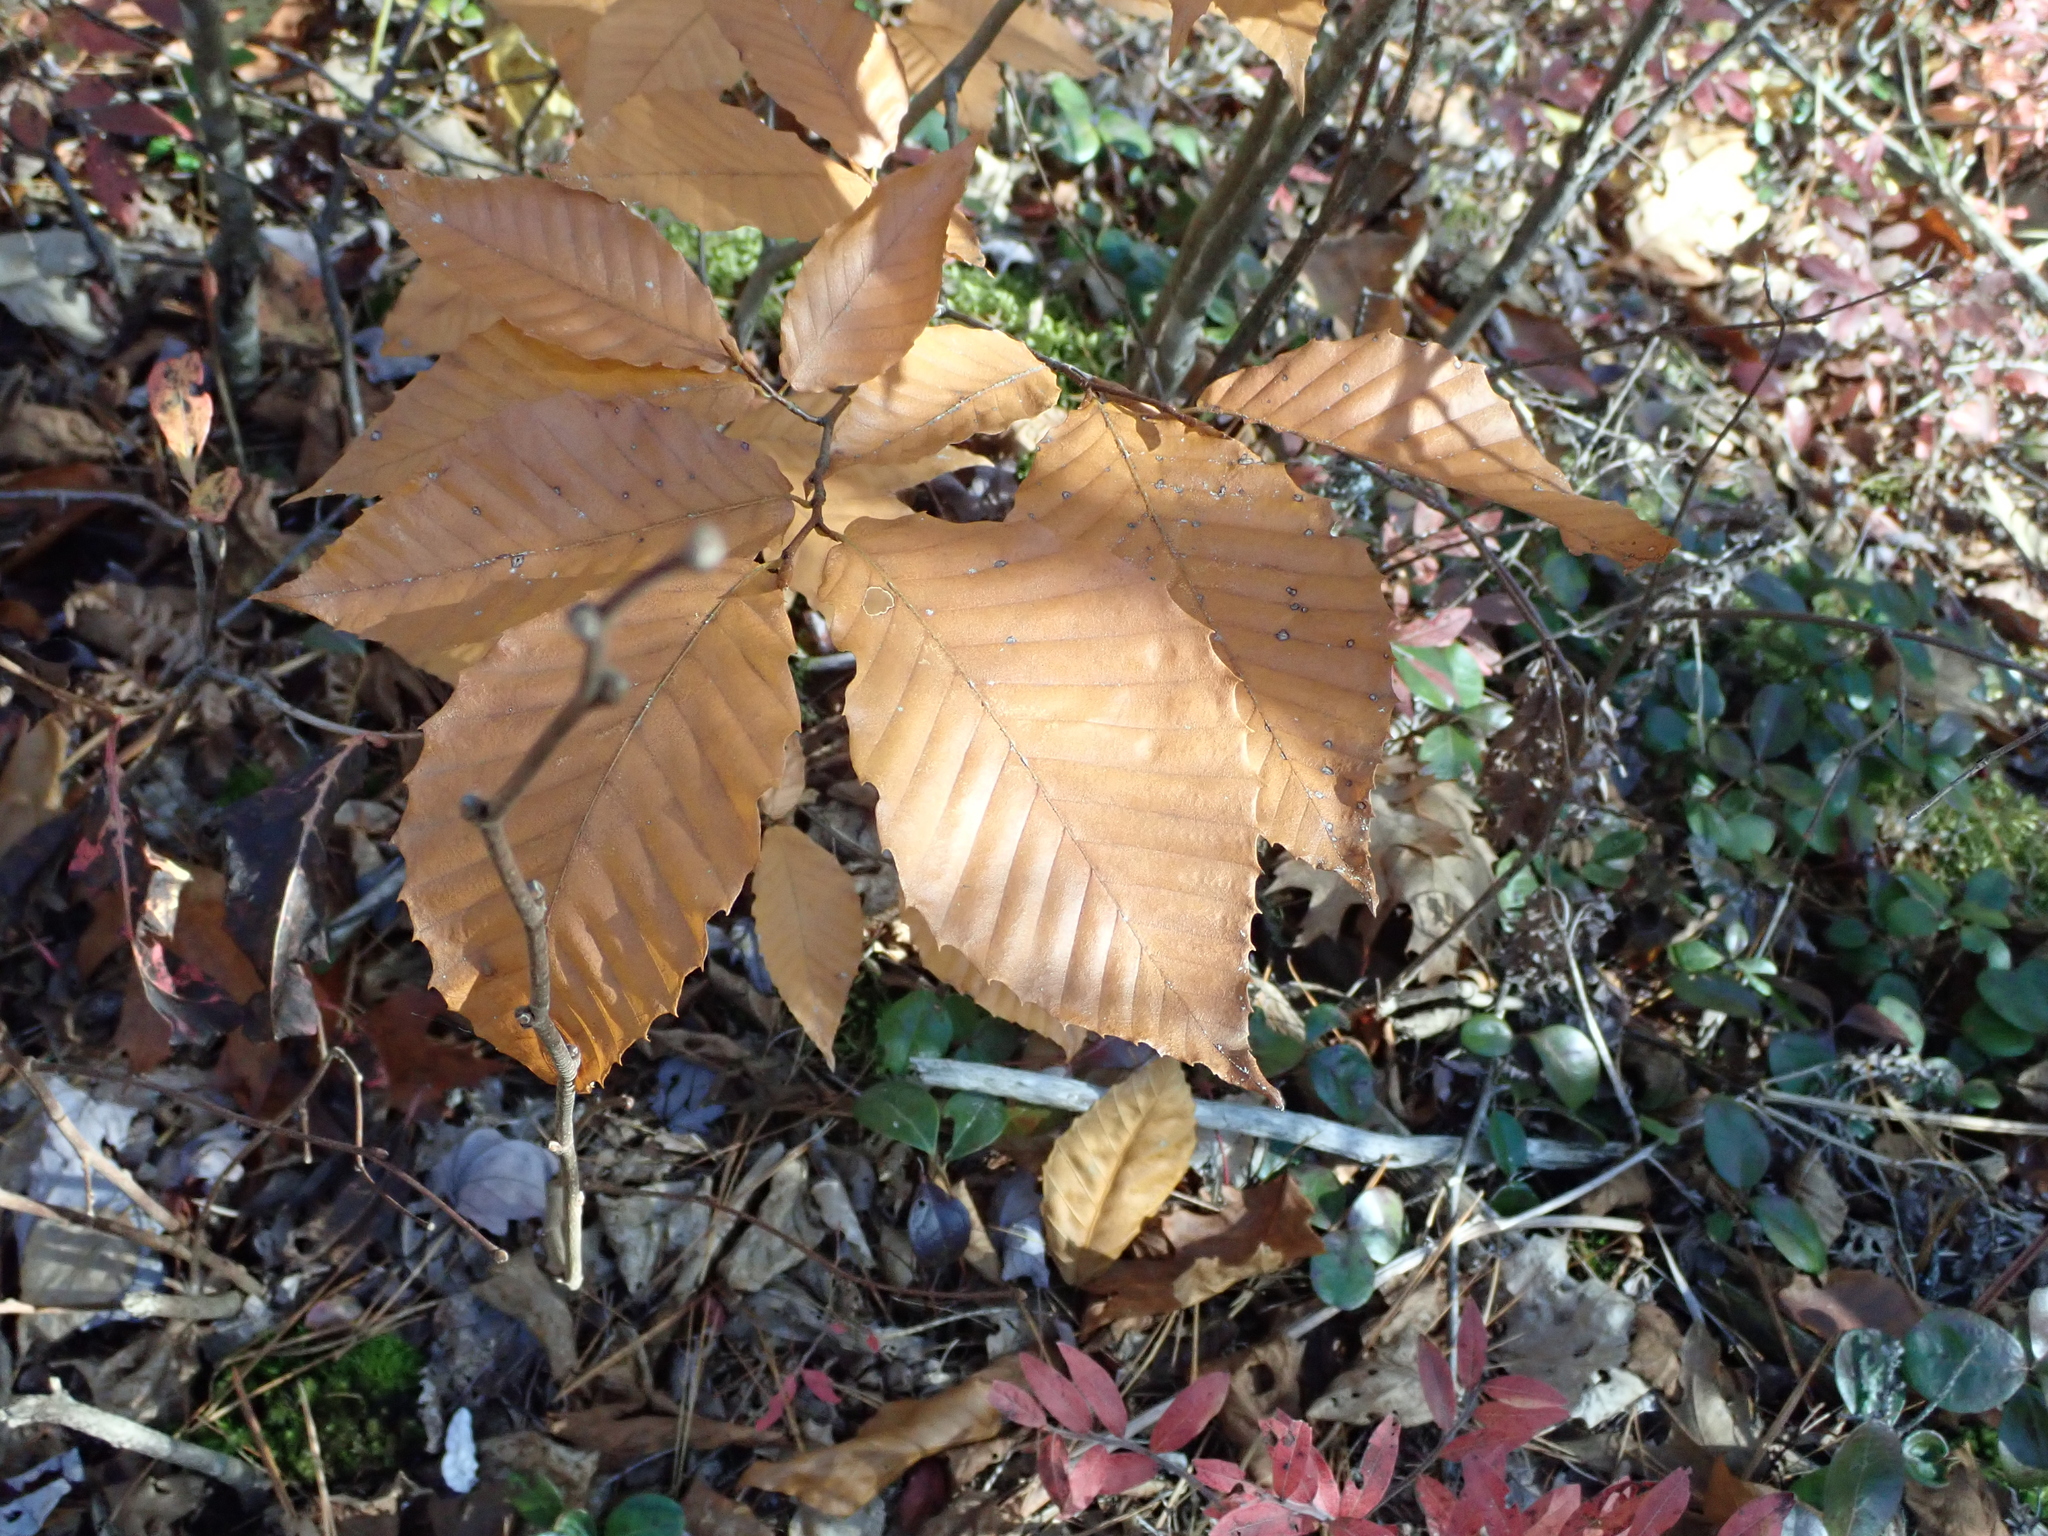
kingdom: Plantae
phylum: Tracheophyta
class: Magnoliopsida
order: Fagales
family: Fagaceae
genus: Fagus
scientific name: Fagus grandifolia
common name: American beech
